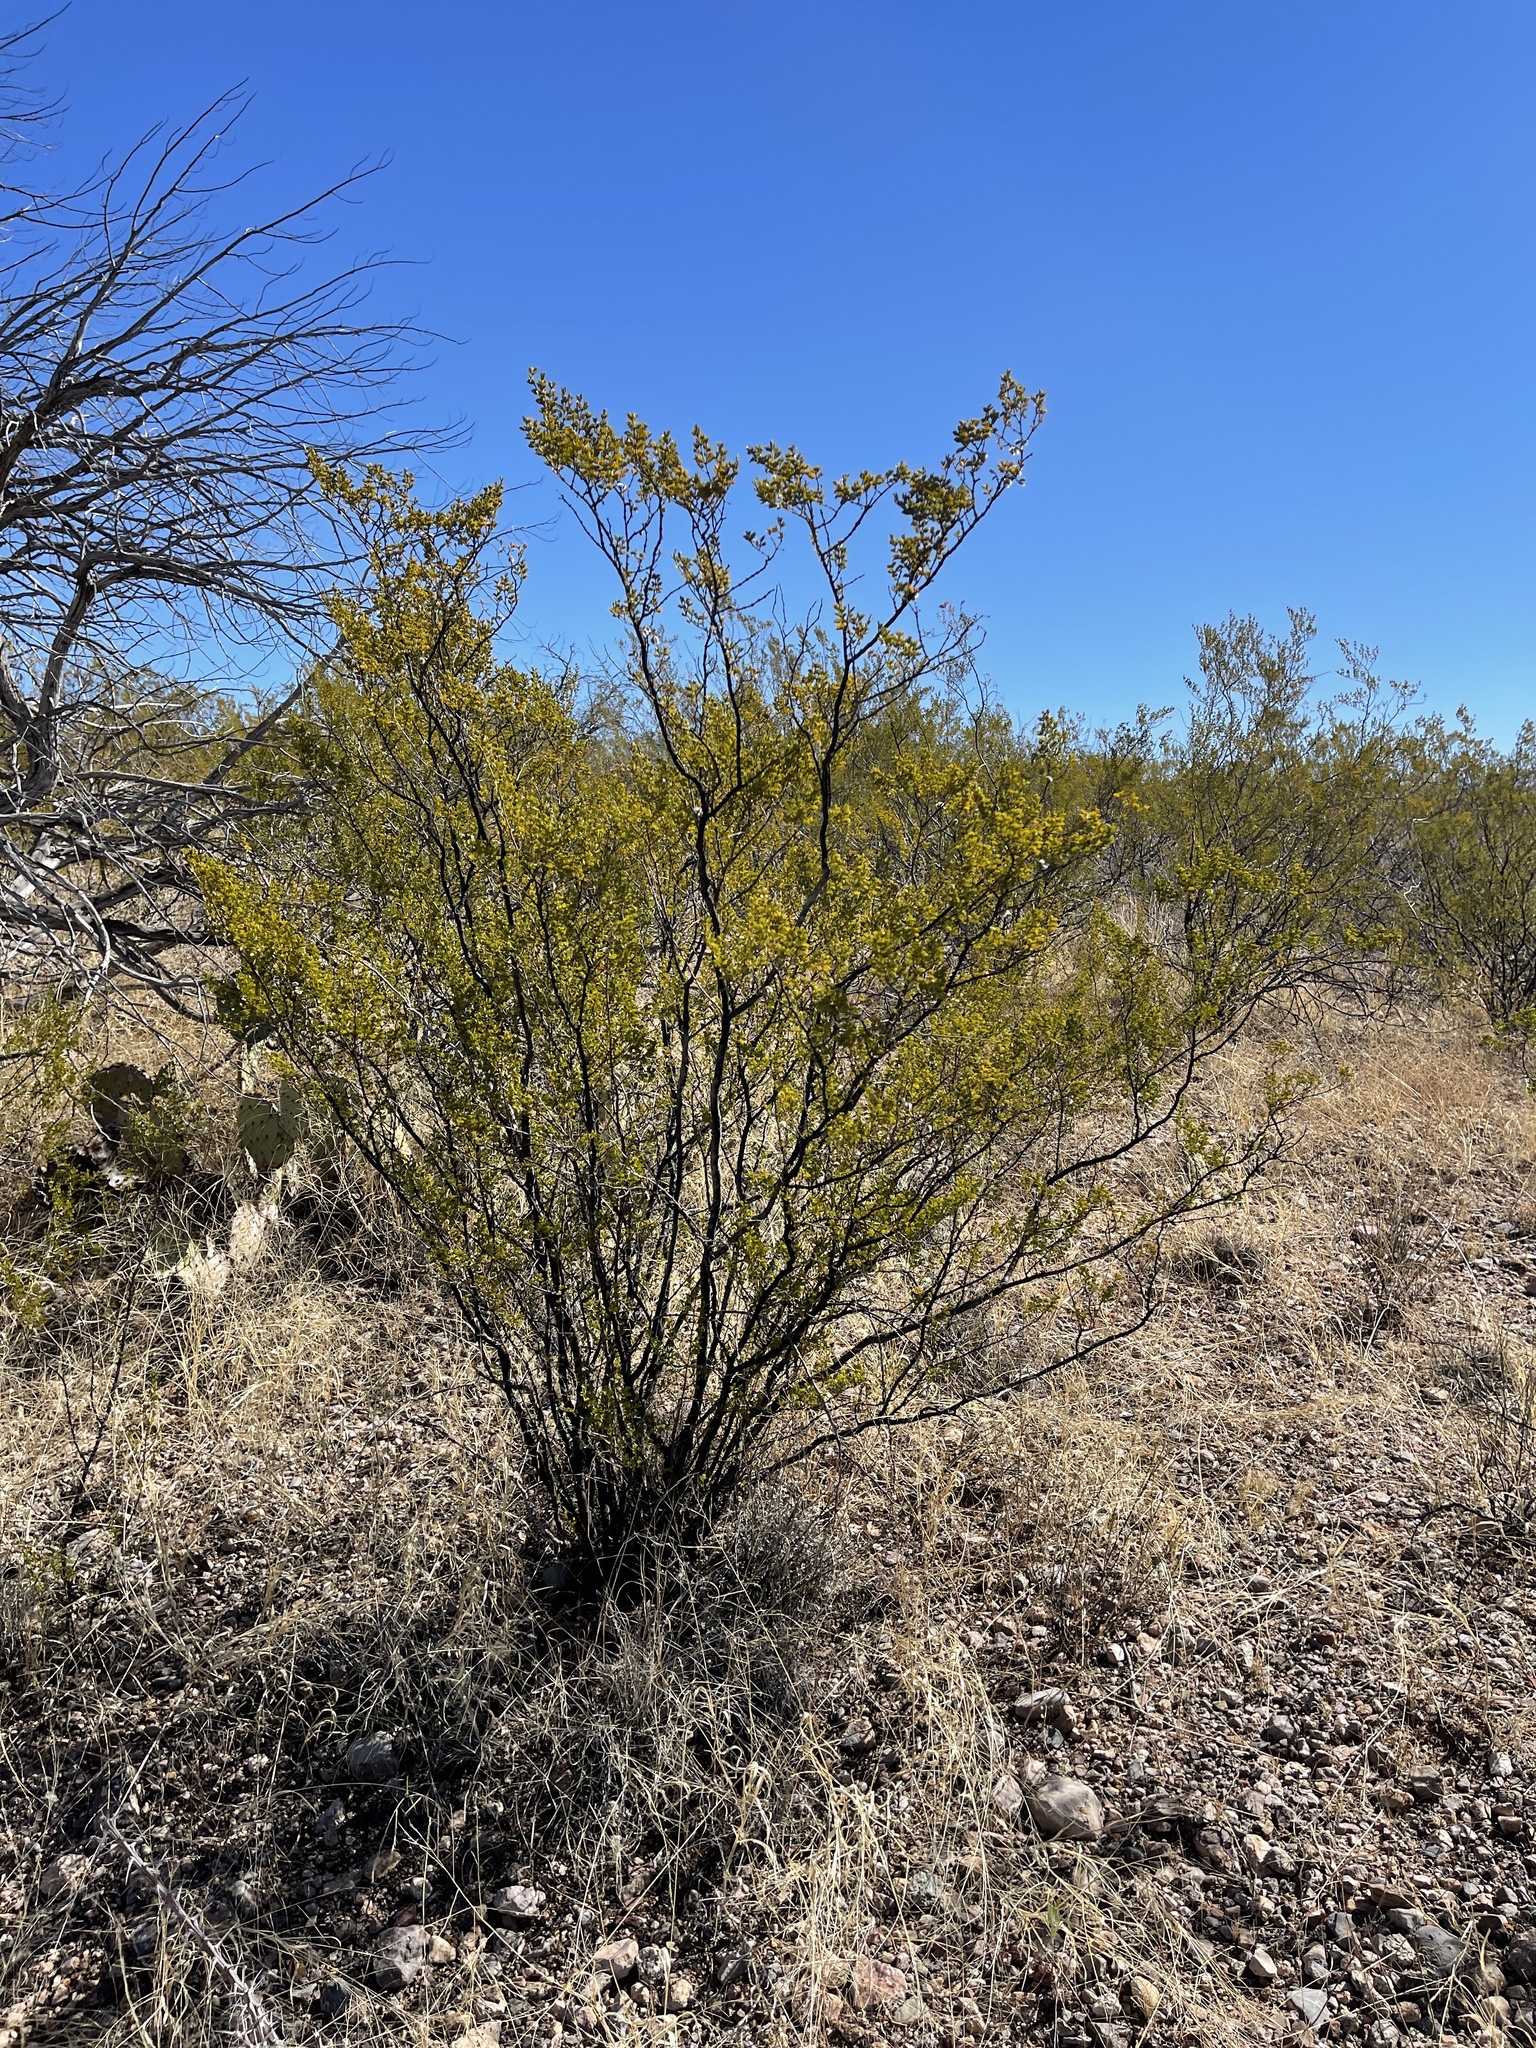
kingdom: Plantae
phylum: Tracheophyta
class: Magnoliopsida
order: Zygophyllales
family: Zygophyllaceae
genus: Larrea
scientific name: Larrea tridentata
